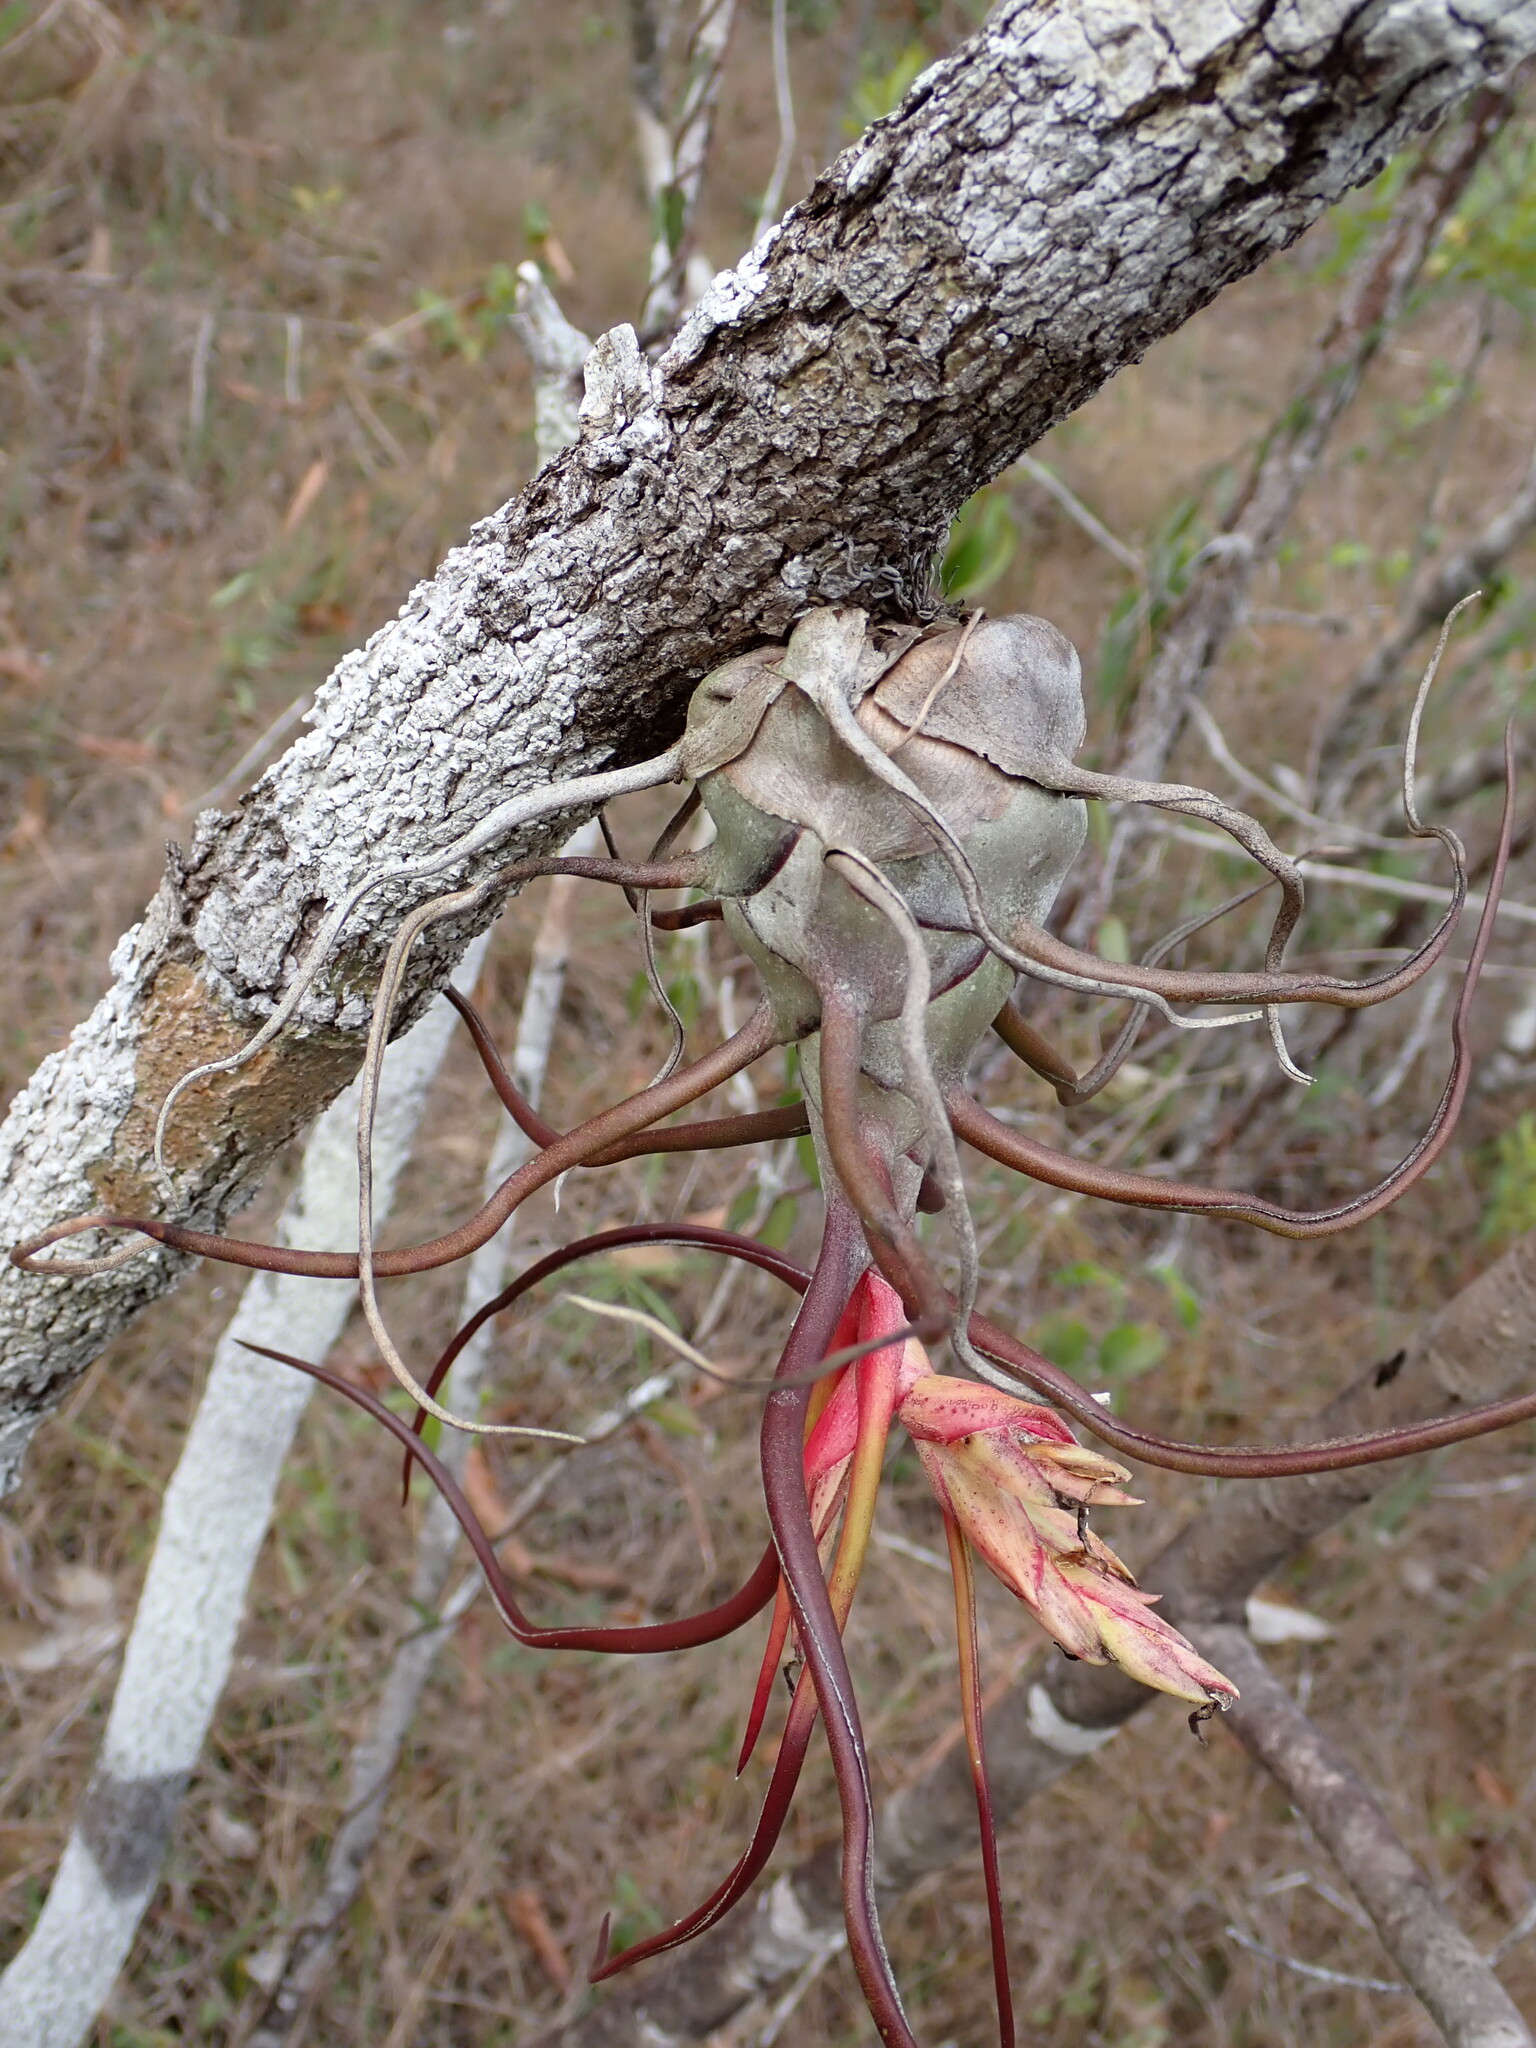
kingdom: Plantae
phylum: Tracheophyta
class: Liliopsida
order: Poales
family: Bromeliaceae
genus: Tillandsia
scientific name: Tillandsia bulbosa
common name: Bulbous airplant
